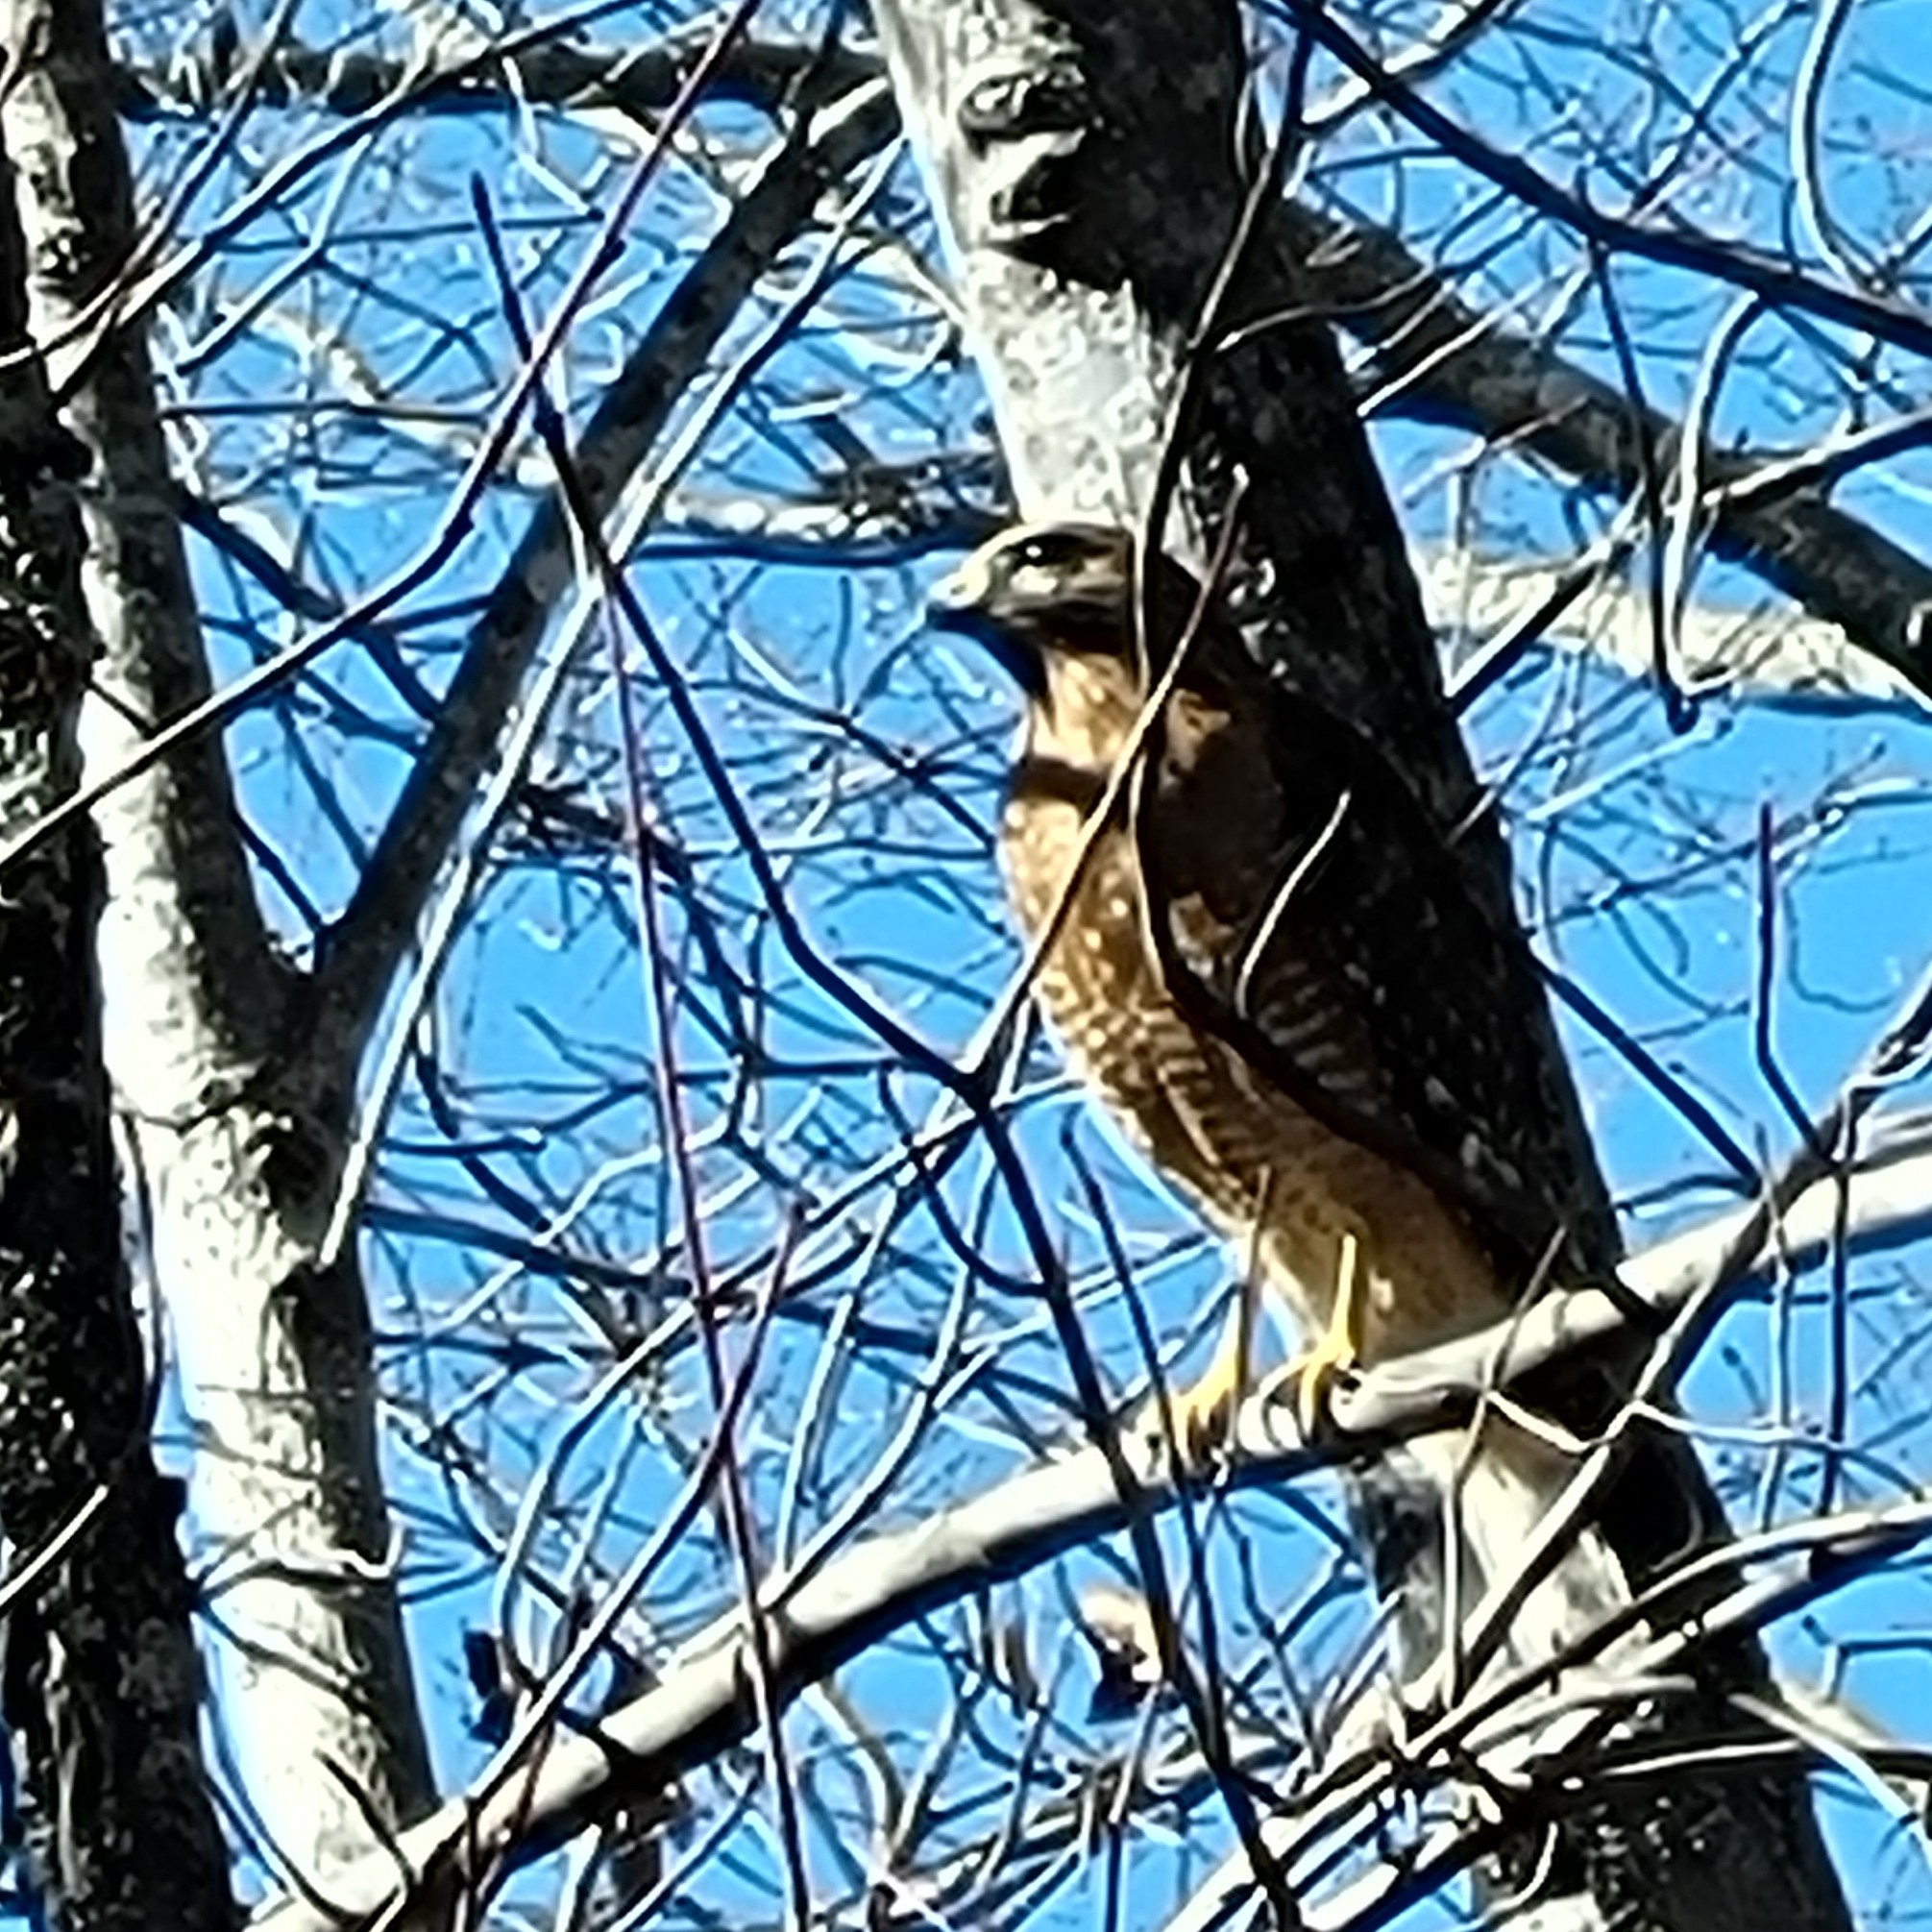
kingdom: Animalia
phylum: Chordata
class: Aves
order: Accipitriformes
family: Accipitridae
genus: Buteo
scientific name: Buteo lineatus
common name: Red-shouldered hawk
